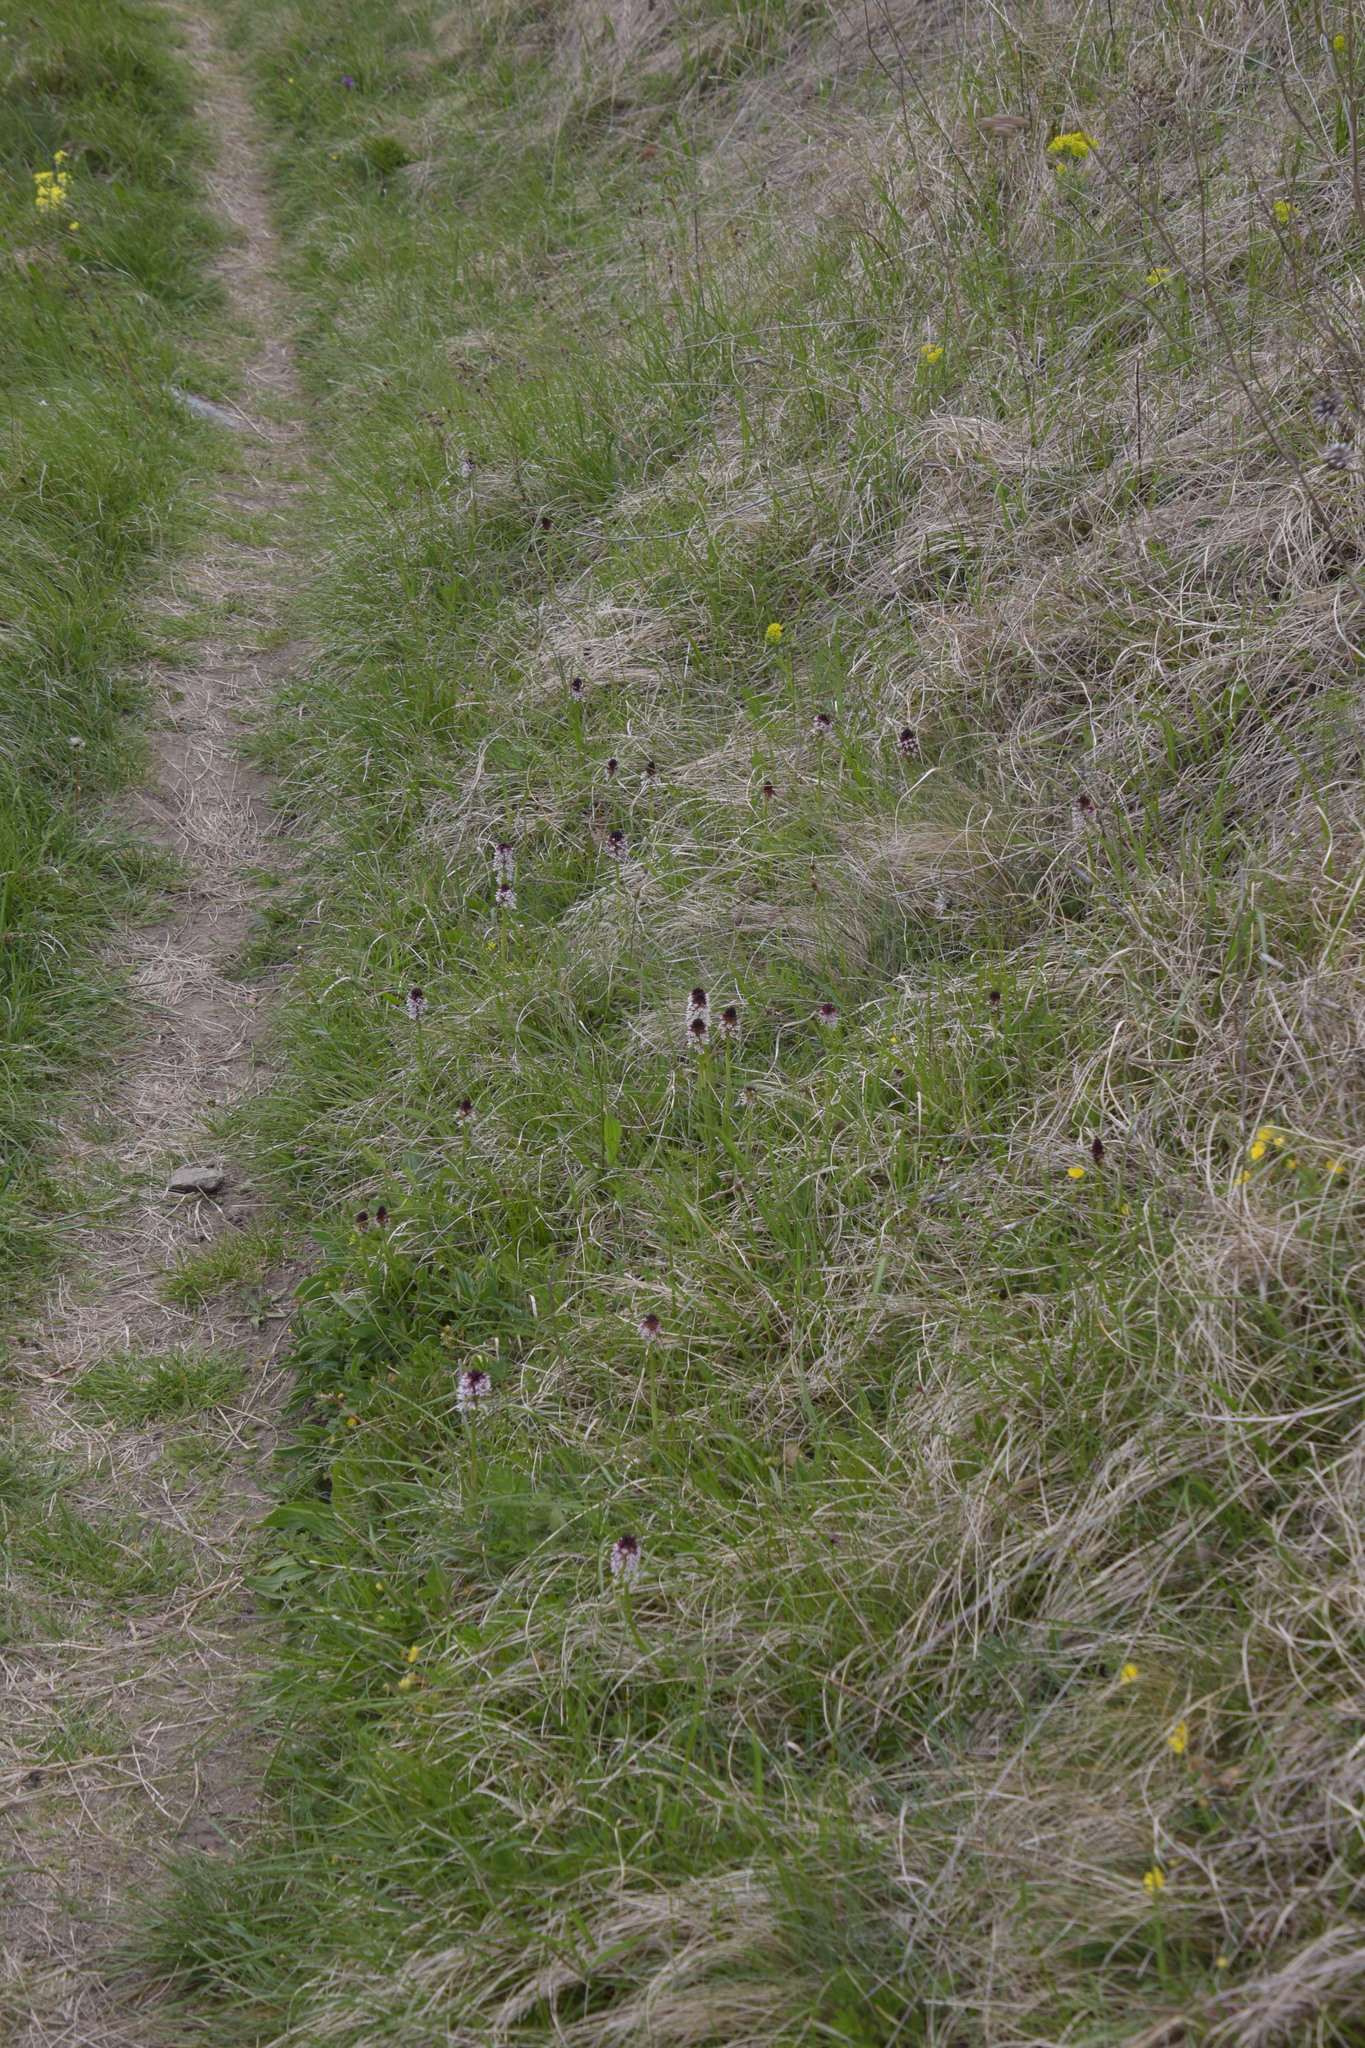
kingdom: Plantae
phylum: Tracheophyta
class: Liliopsida
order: Asparagales
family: Orchidaceae
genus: Neotinea
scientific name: Neotinea ustulata
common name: Burnt orchid
